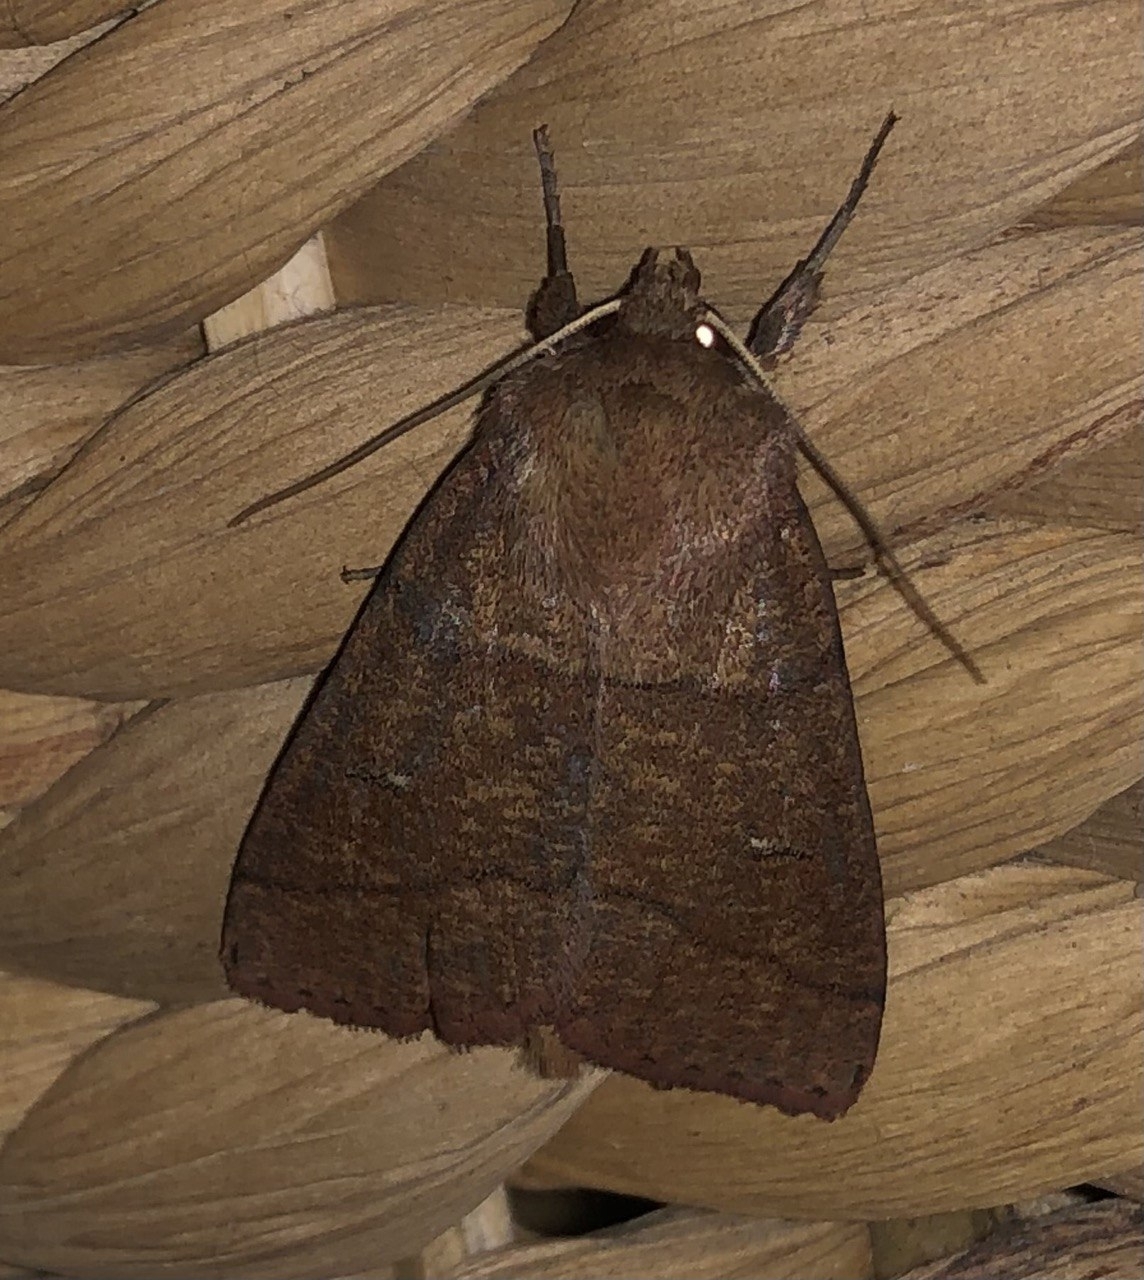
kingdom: Animalia
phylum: Arthropoda
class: Insecta
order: Lepidoptera
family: Noctuidae
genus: Mythimna
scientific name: Mythimna turca
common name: Double line
